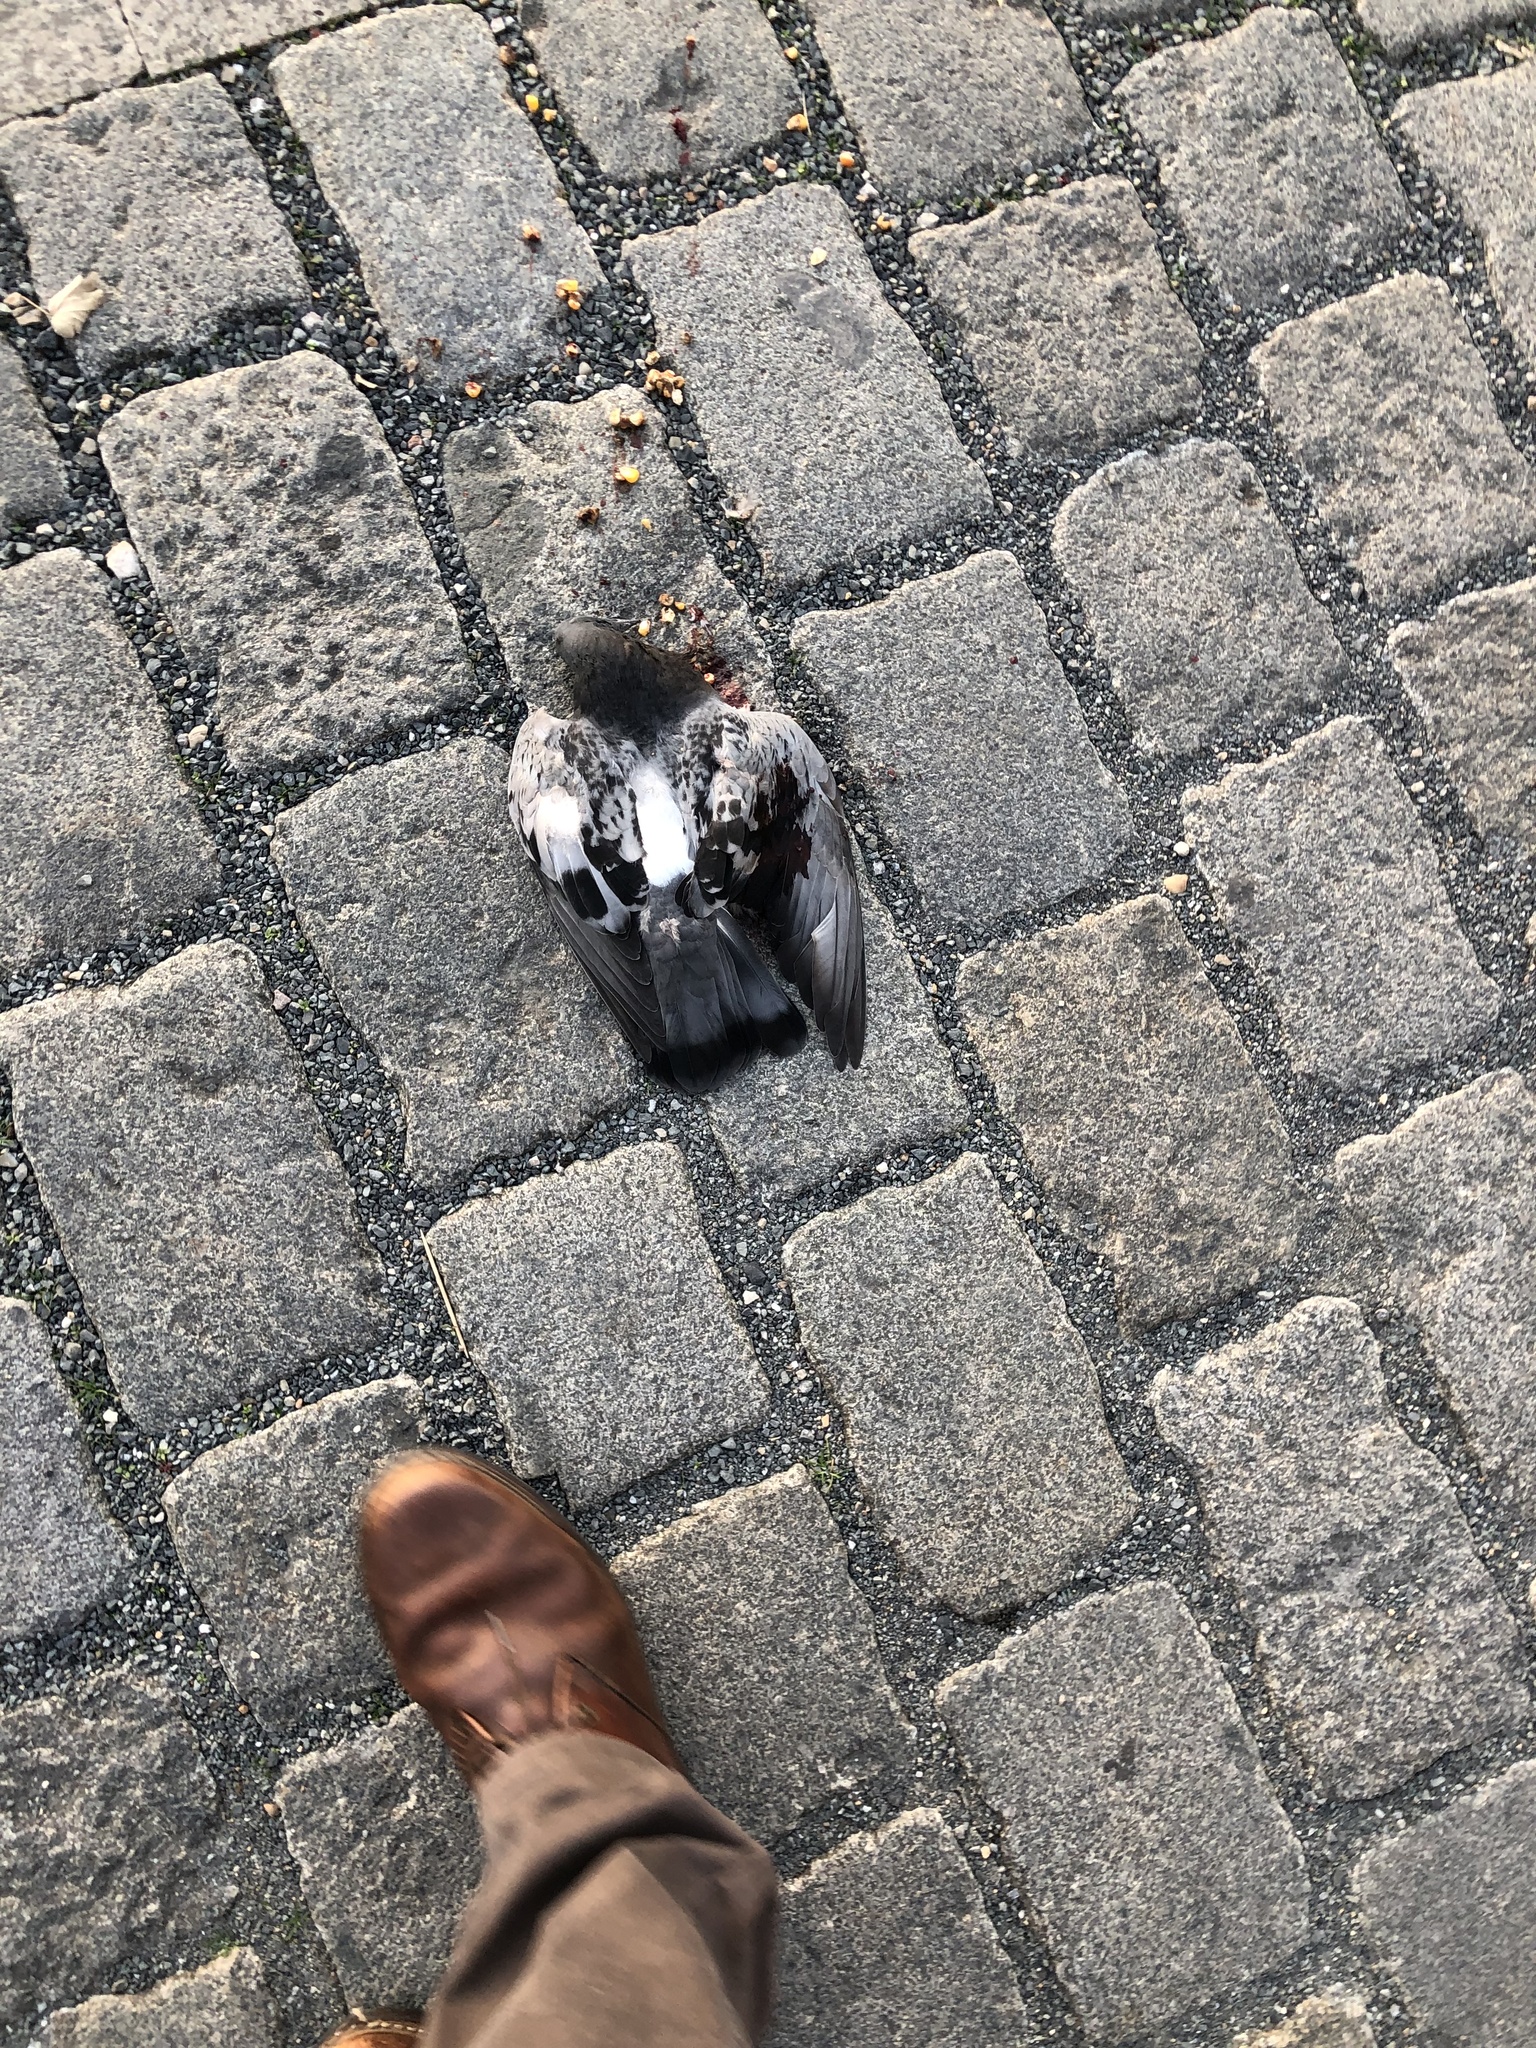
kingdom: Animalia
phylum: Chordata
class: Aves
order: Columbiformes
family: Columbidae
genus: Columba
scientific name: Columba livia
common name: Rock pigeon
